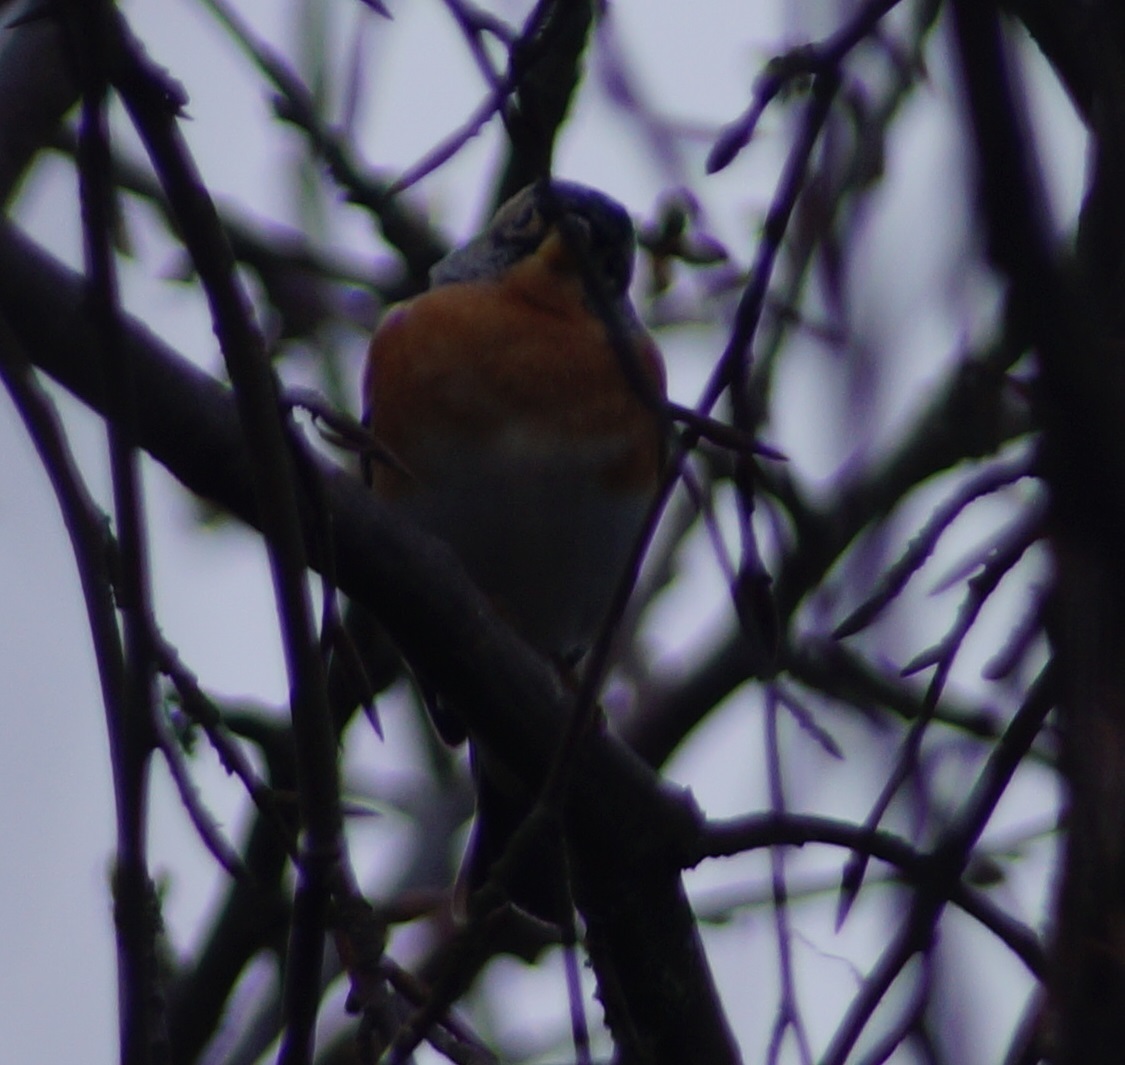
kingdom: Animalia
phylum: Chordata
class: Aves
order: Passeriformes
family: Fringillidae
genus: Fringilla
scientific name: Fringilla montifringilla
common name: Brambling
